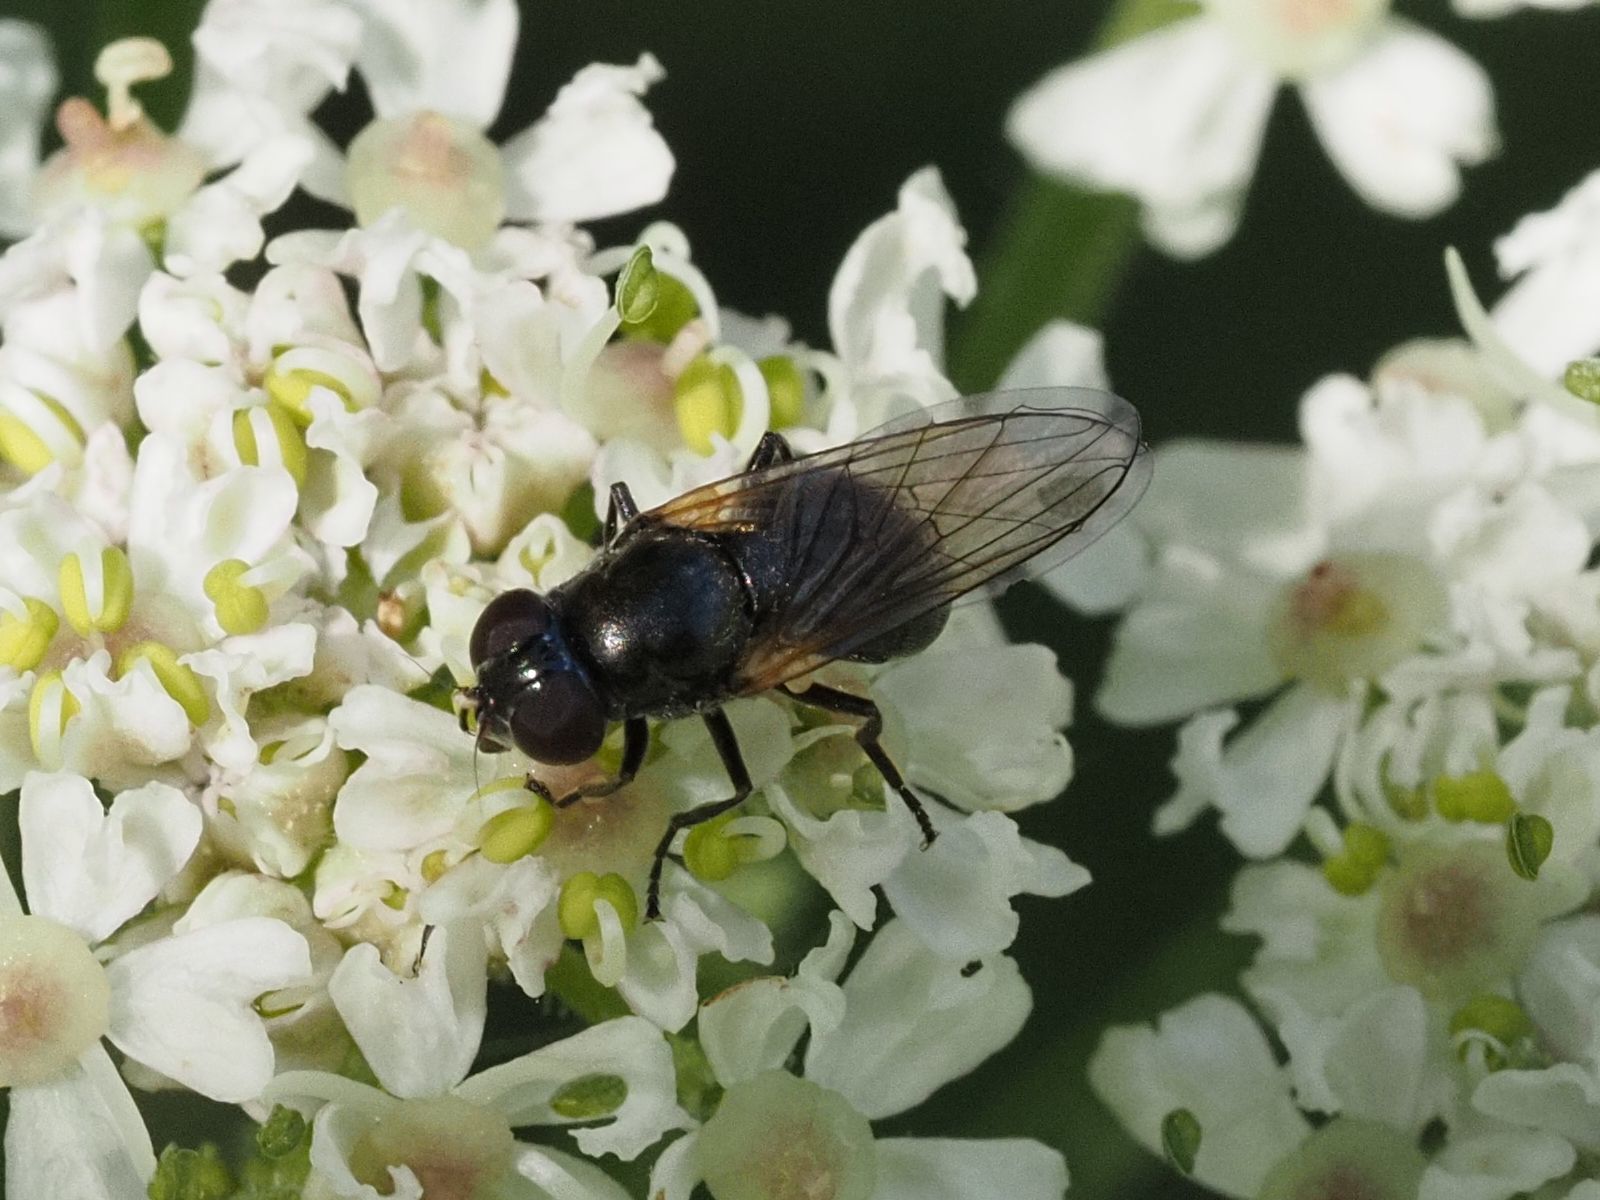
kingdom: Animalia
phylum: Arthropoda
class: Insecta
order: Diptera
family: Syrphidae
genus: Cheilosia
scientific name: Cheilosia impressa
